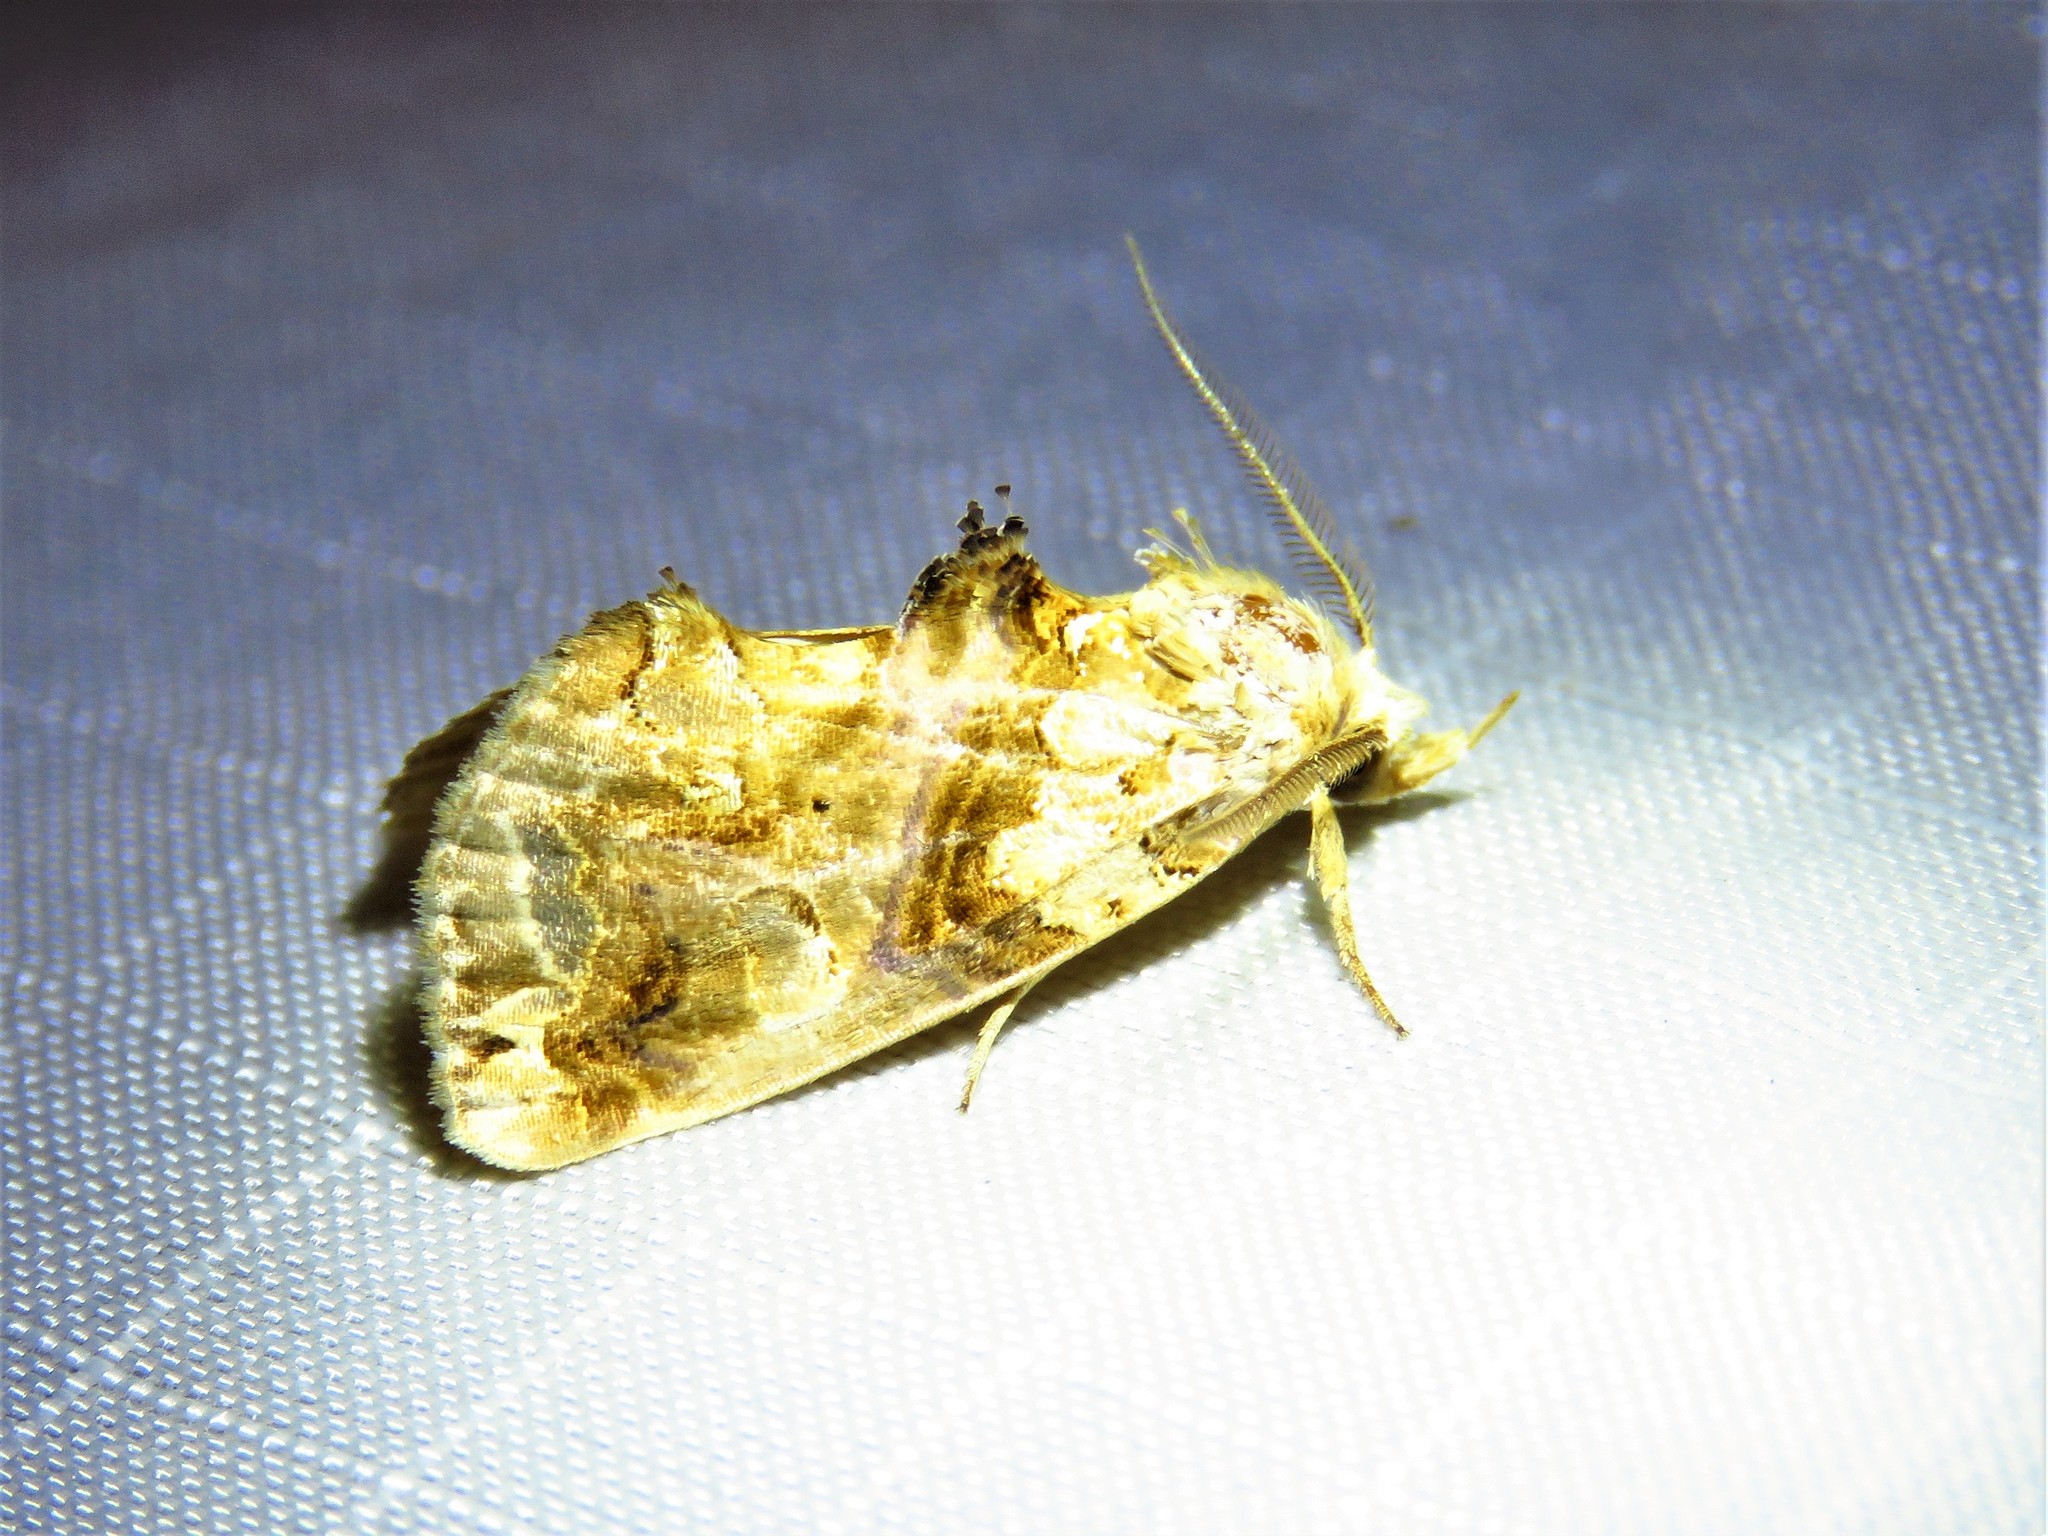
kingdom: Animalia
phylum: Arthropoda
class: Insecta
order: Lepidoptera
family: Erebidae
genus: Plusiodonta
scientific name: Plusiodonta compressipalpis
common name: Moonseed moth
